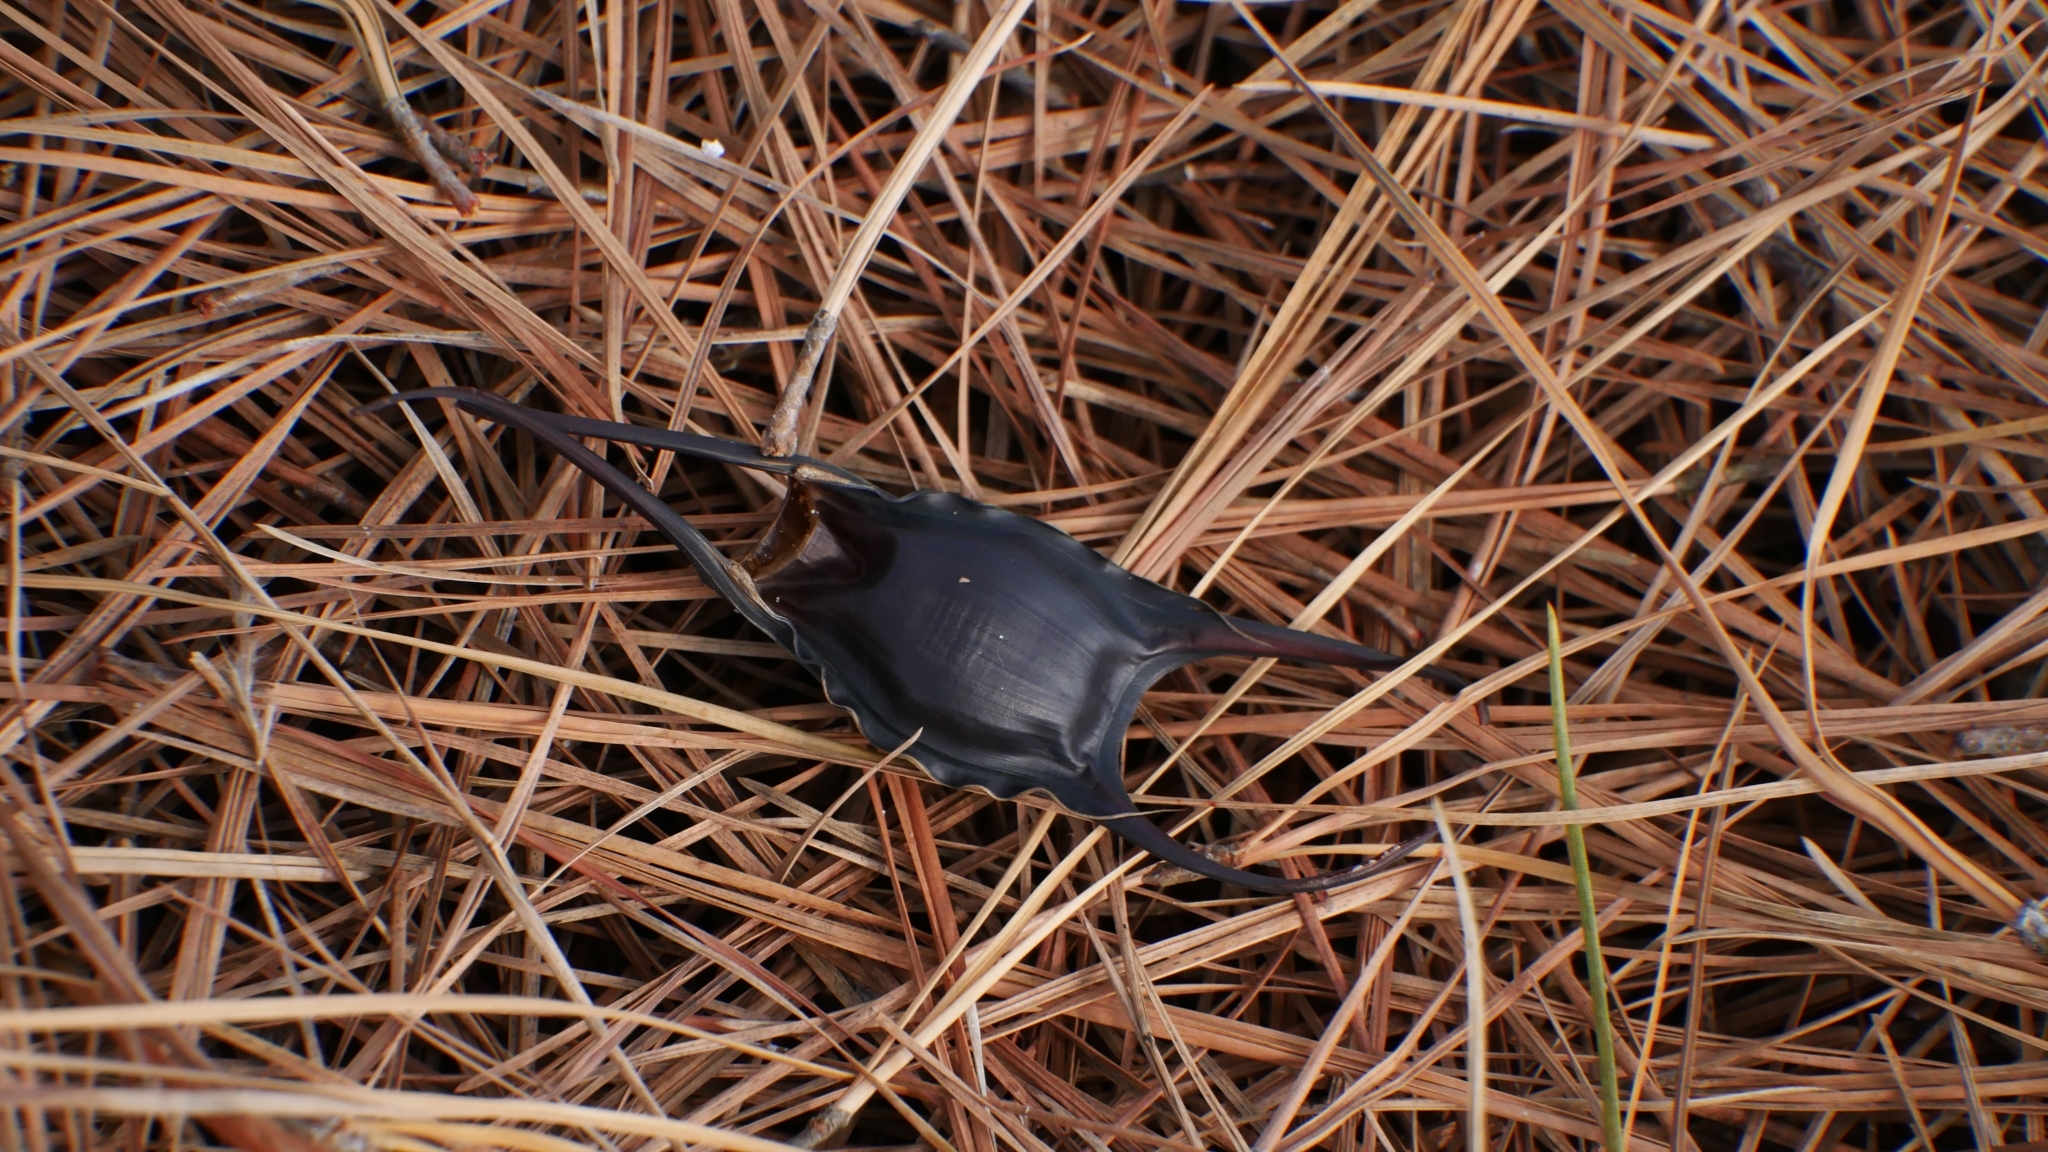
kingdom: Animalia
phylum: Chordata
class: Elasmobranchii
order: Rajiformes
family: Rajidae
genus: Leucoraja
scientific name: Leucoraja erinacea
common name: Little skate
